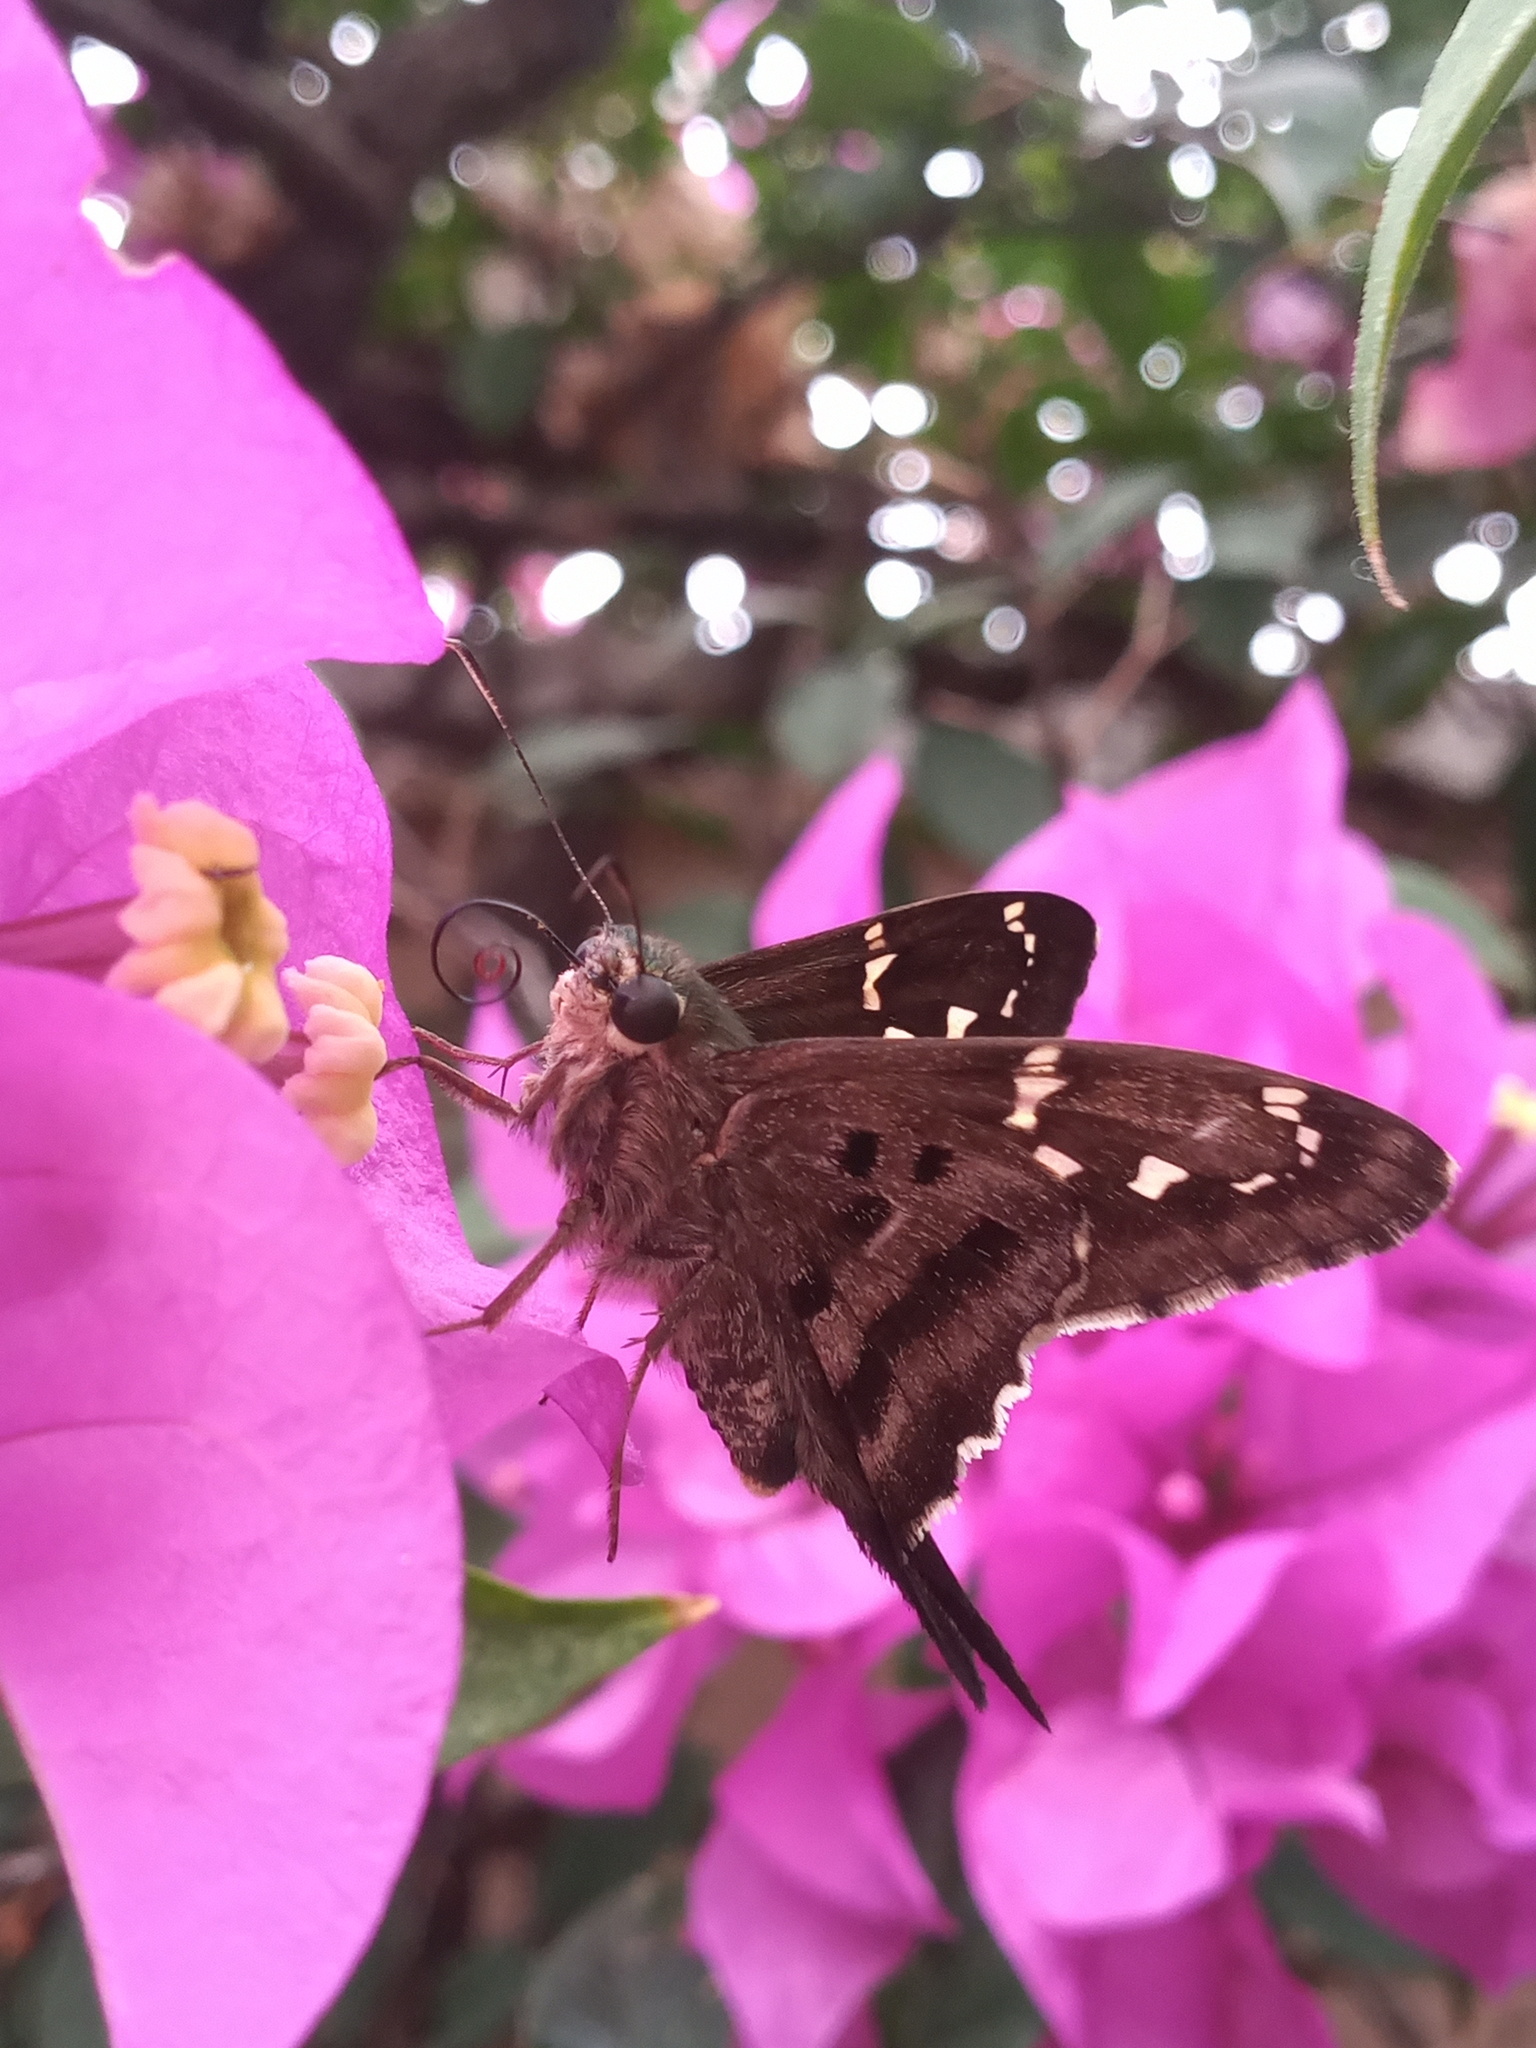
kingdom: Animalia
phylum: Arthropoda
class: Insecta
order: Lepidoptera
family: Hesperiidae
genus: Urbanus
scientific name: Urbanus proteus
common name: Long-tailed skipper
